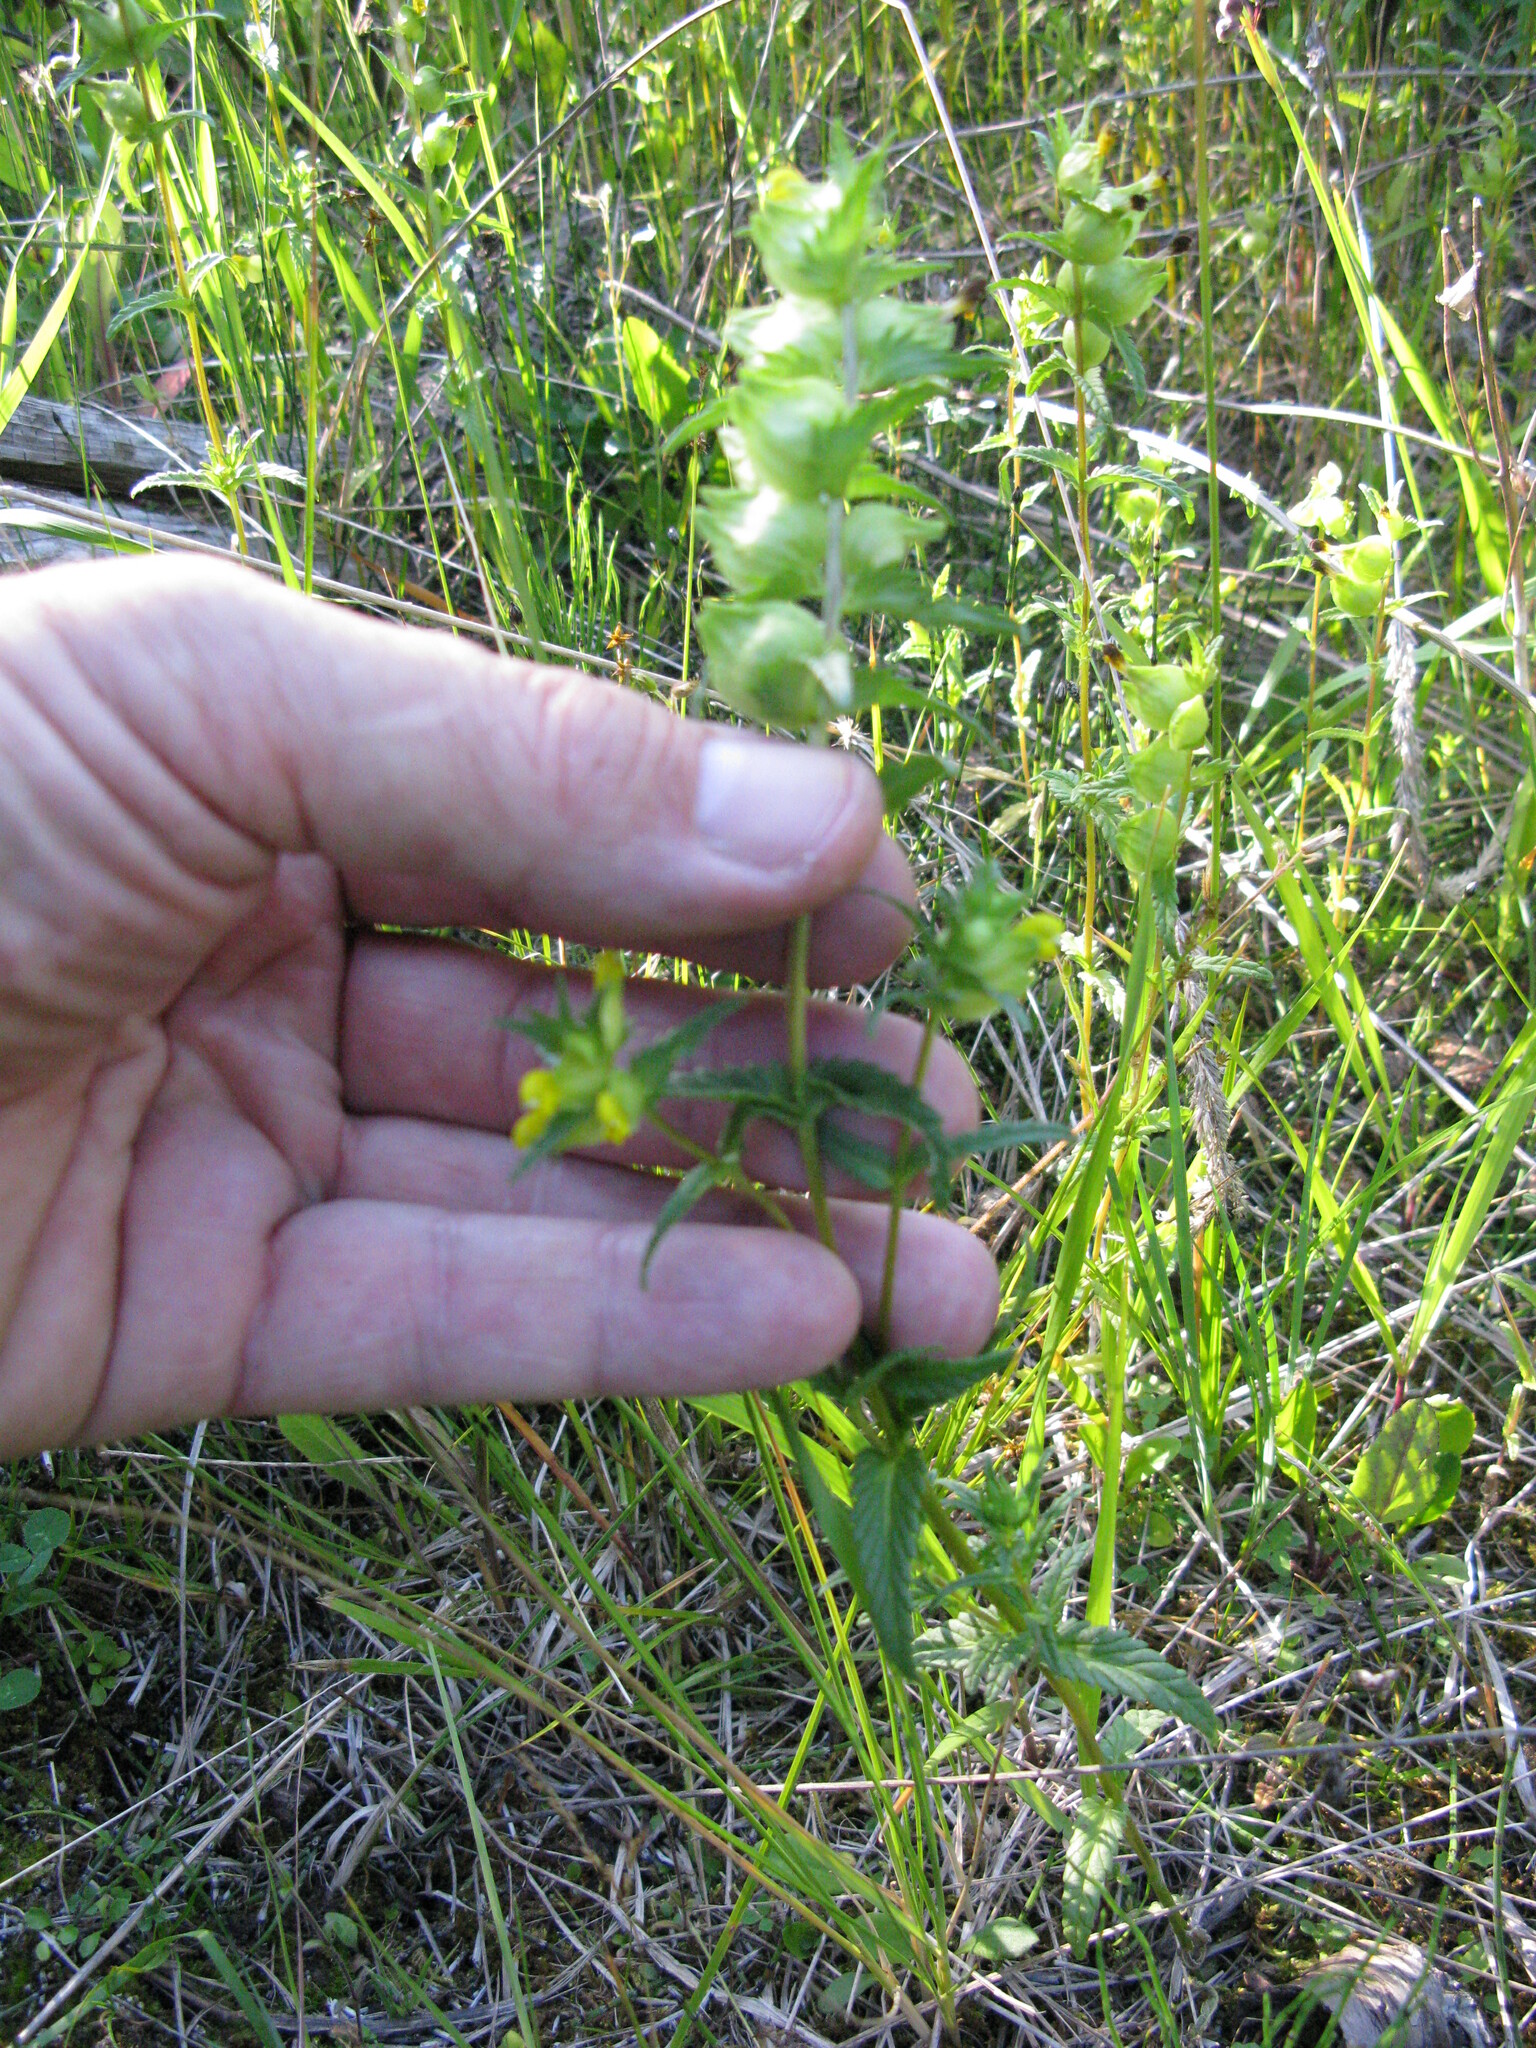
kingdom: Plantae
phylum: Tracheophyta
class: Magnoliopsida
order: Lamiales
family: Orobanchaceae
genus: Rhinanthus
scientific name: Rhinanthus groenlandicus
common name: Little yellow rattle
